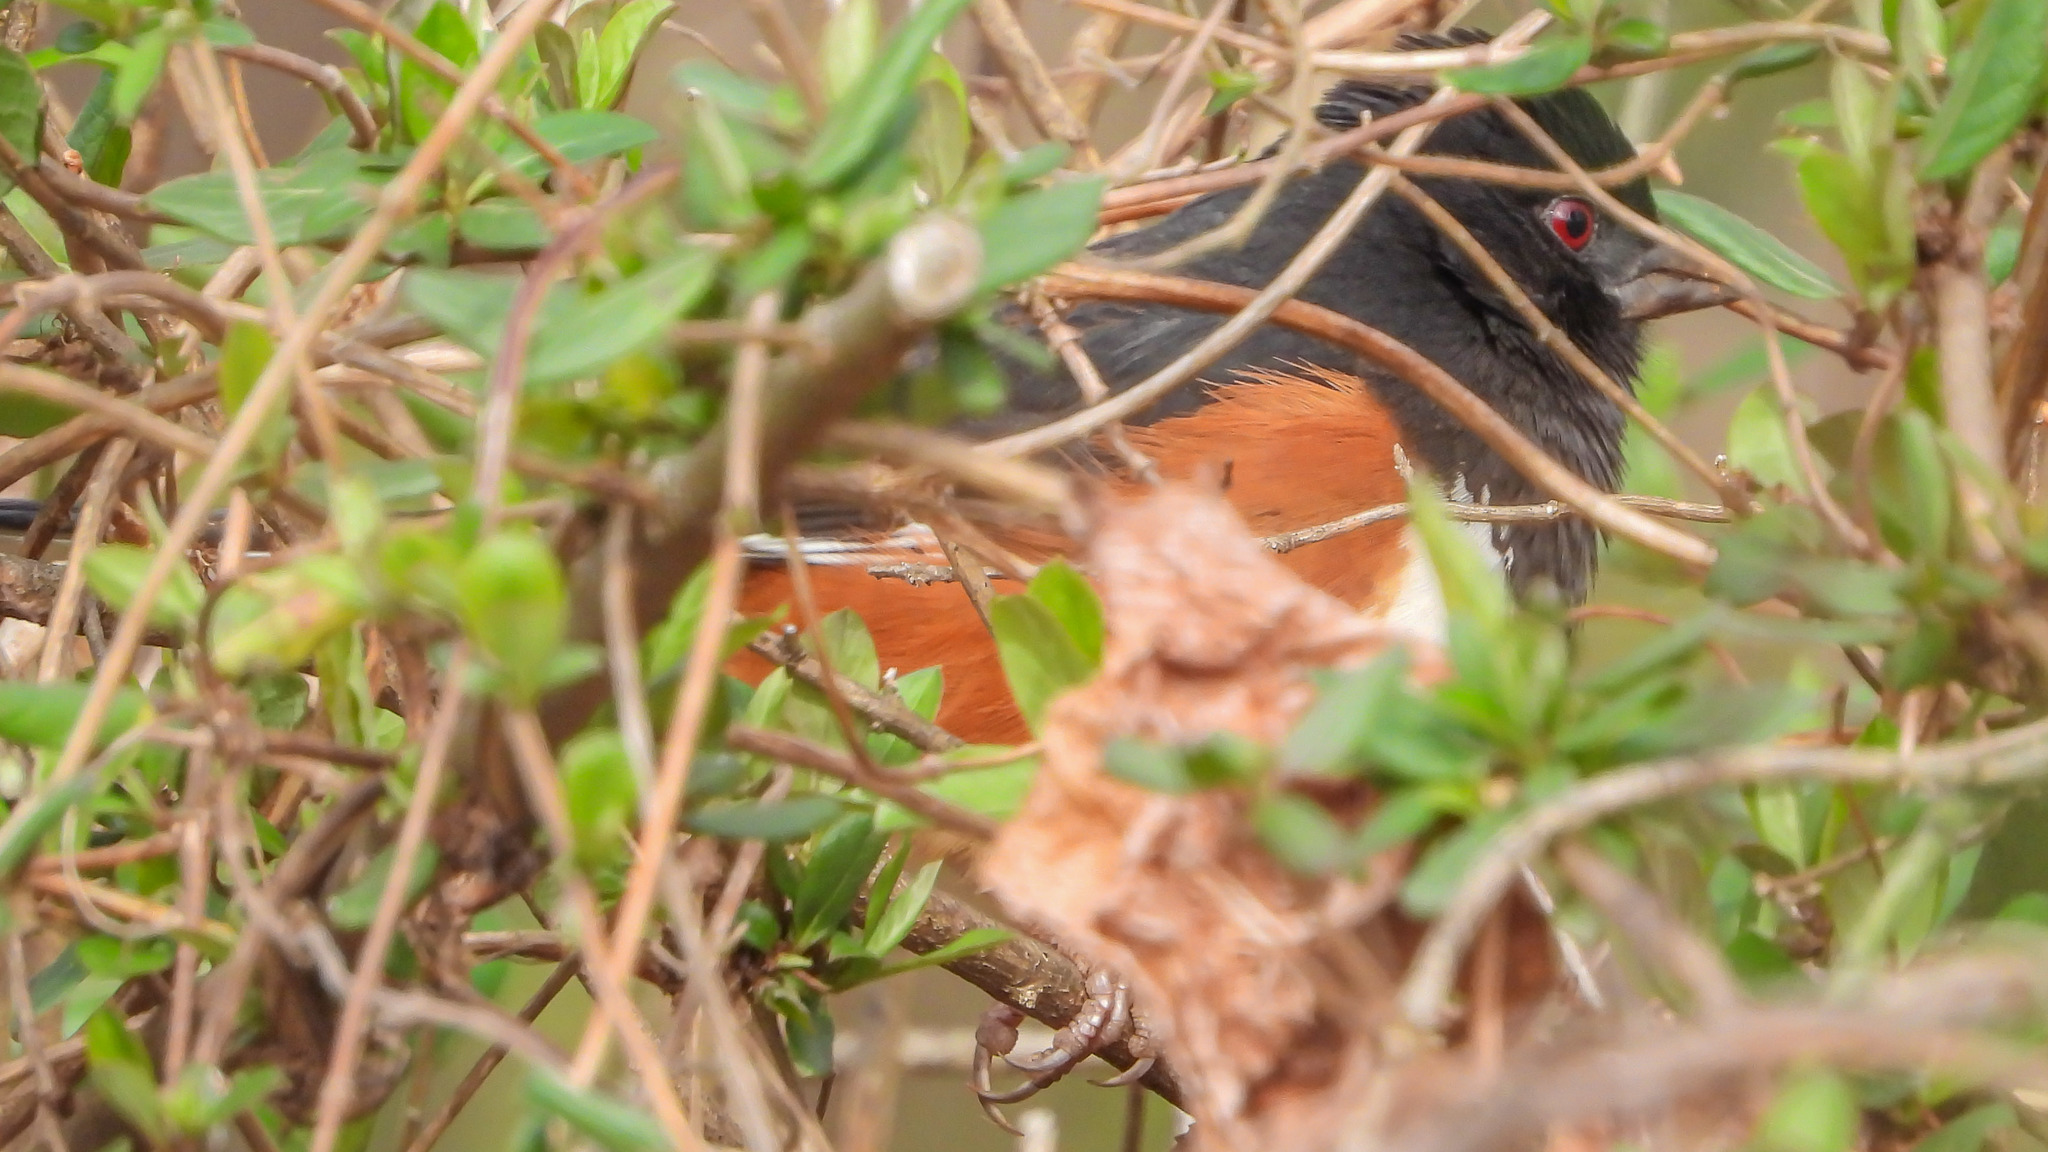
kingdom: Animalia
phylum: Chordata
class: Aves
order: Passeriformes
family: Passerellidae
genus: Pipilo
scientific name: Pipilo erythrophthalmus
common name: Eastern towhee
